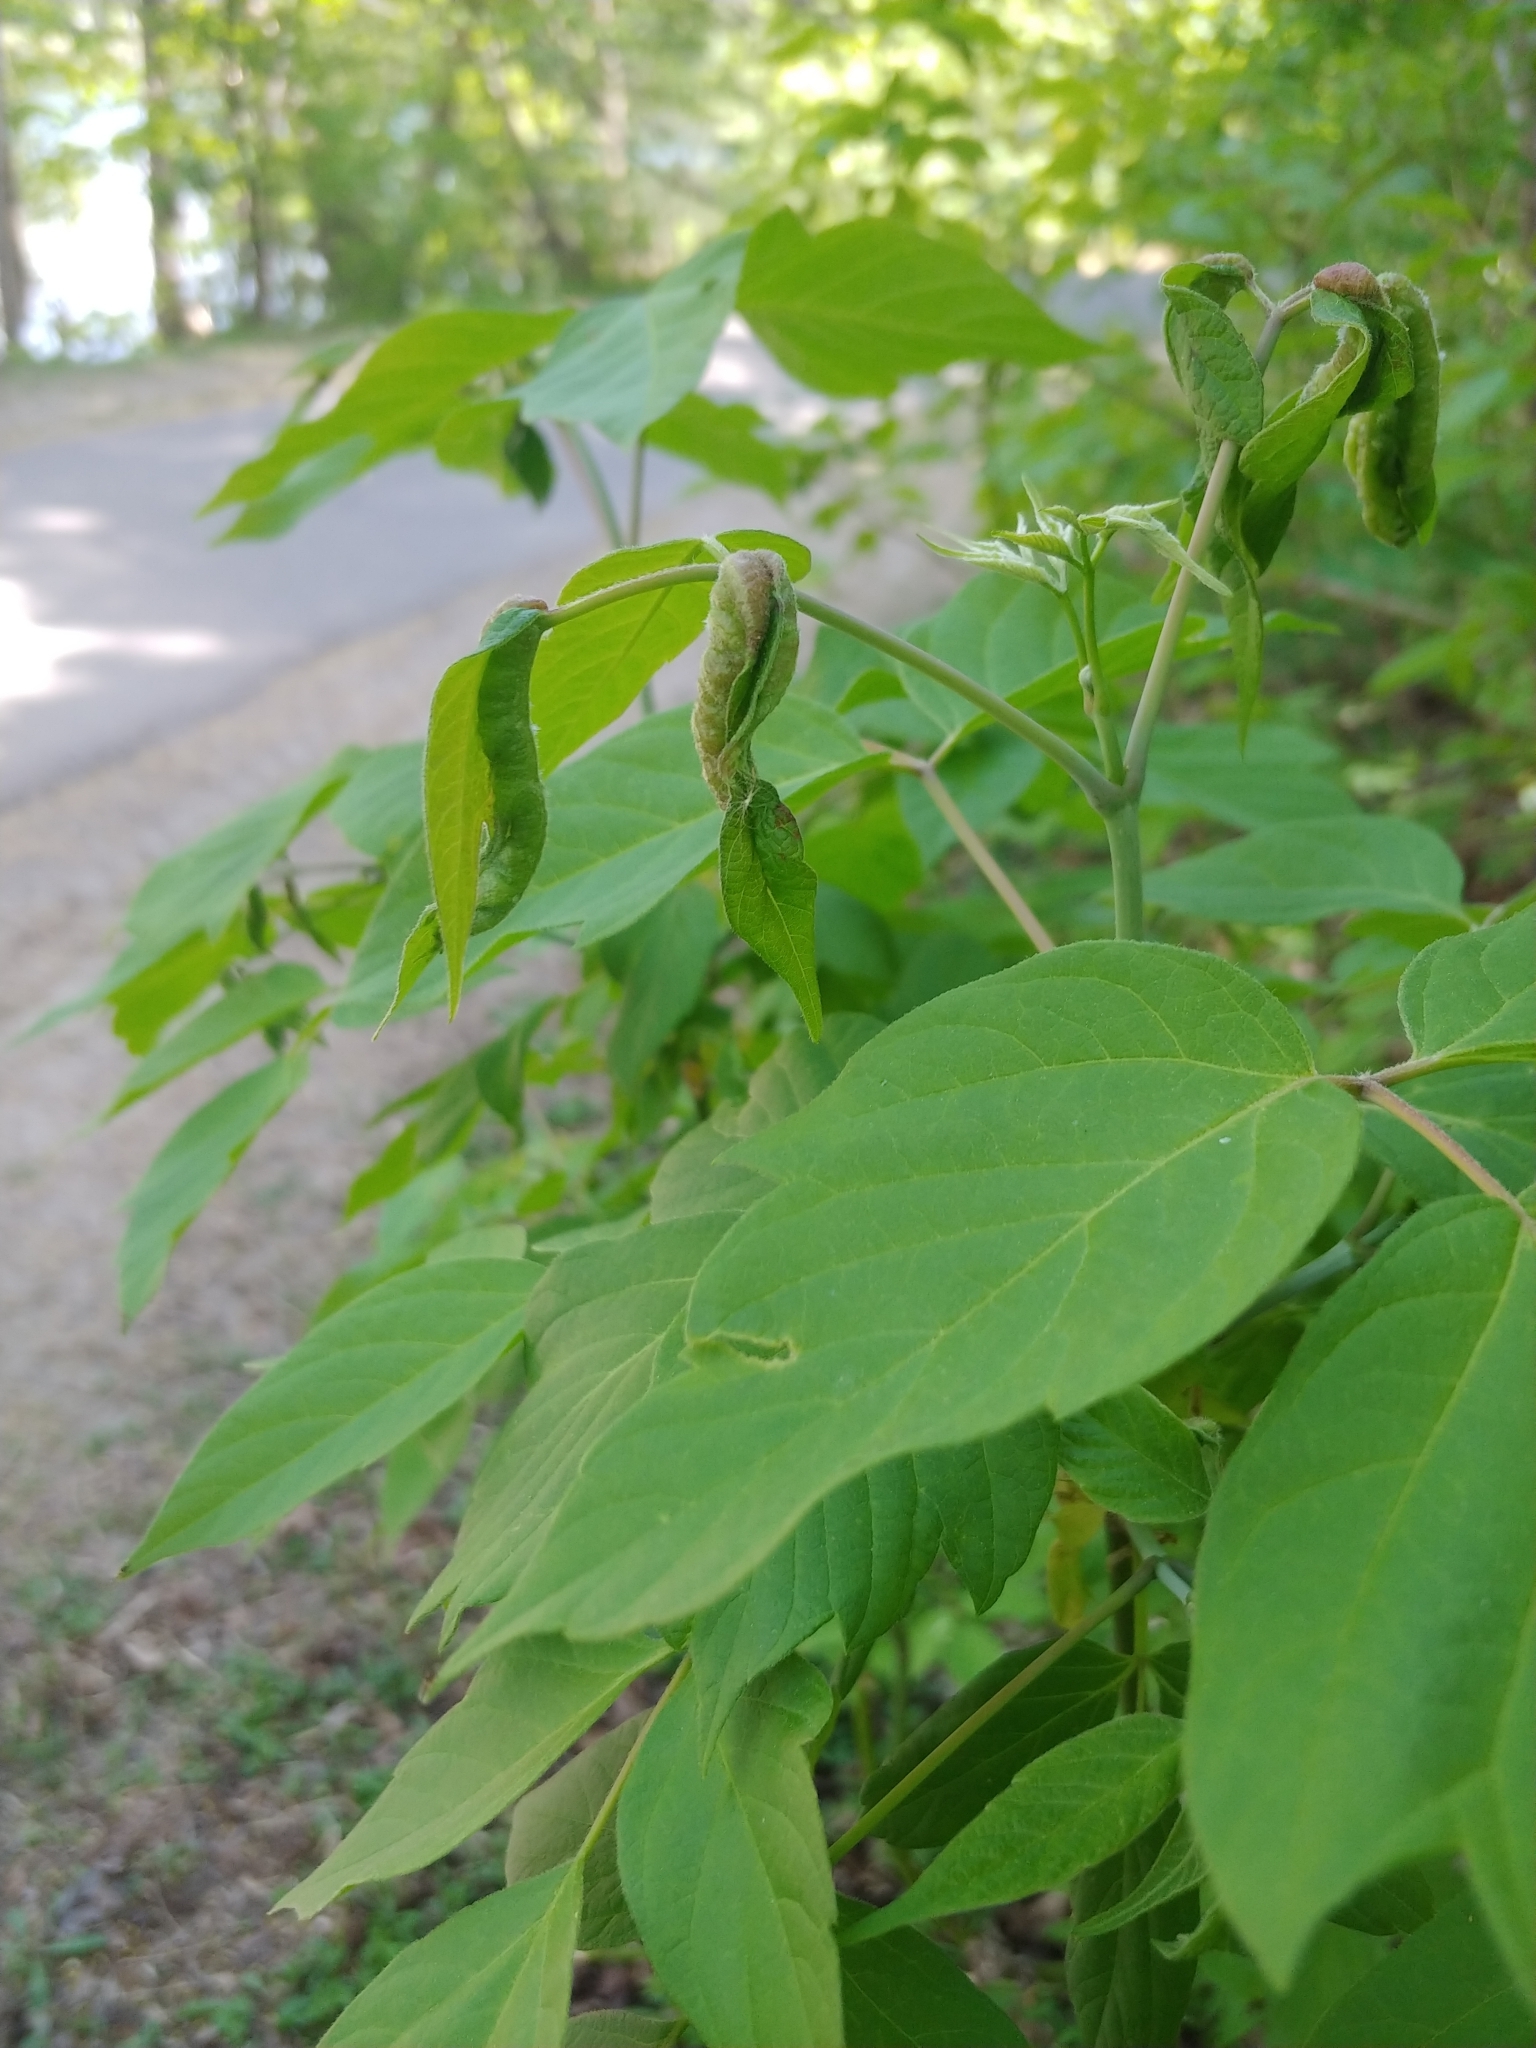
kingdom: Animalia
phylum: Arthropoda
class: Insecta
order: Diptera
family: Cecidomyiidae
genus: Contarinia
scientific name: Contarinia negundinis
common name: Boxelder budgall midge
